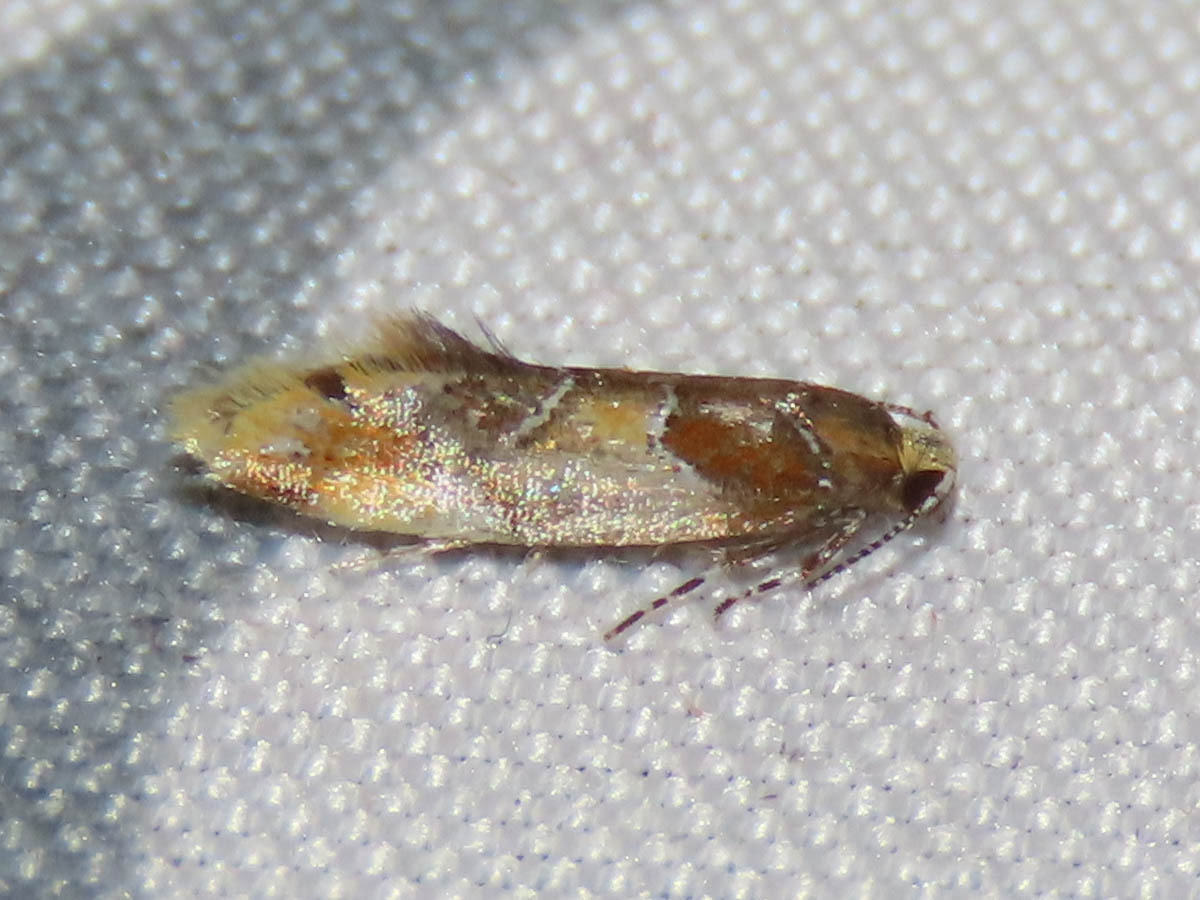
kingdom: Animalia
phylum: Arthropoda
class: Insecta
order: Lepidoptera
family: Oecophoridae
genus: Callima
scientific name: Callima argenticinctella
